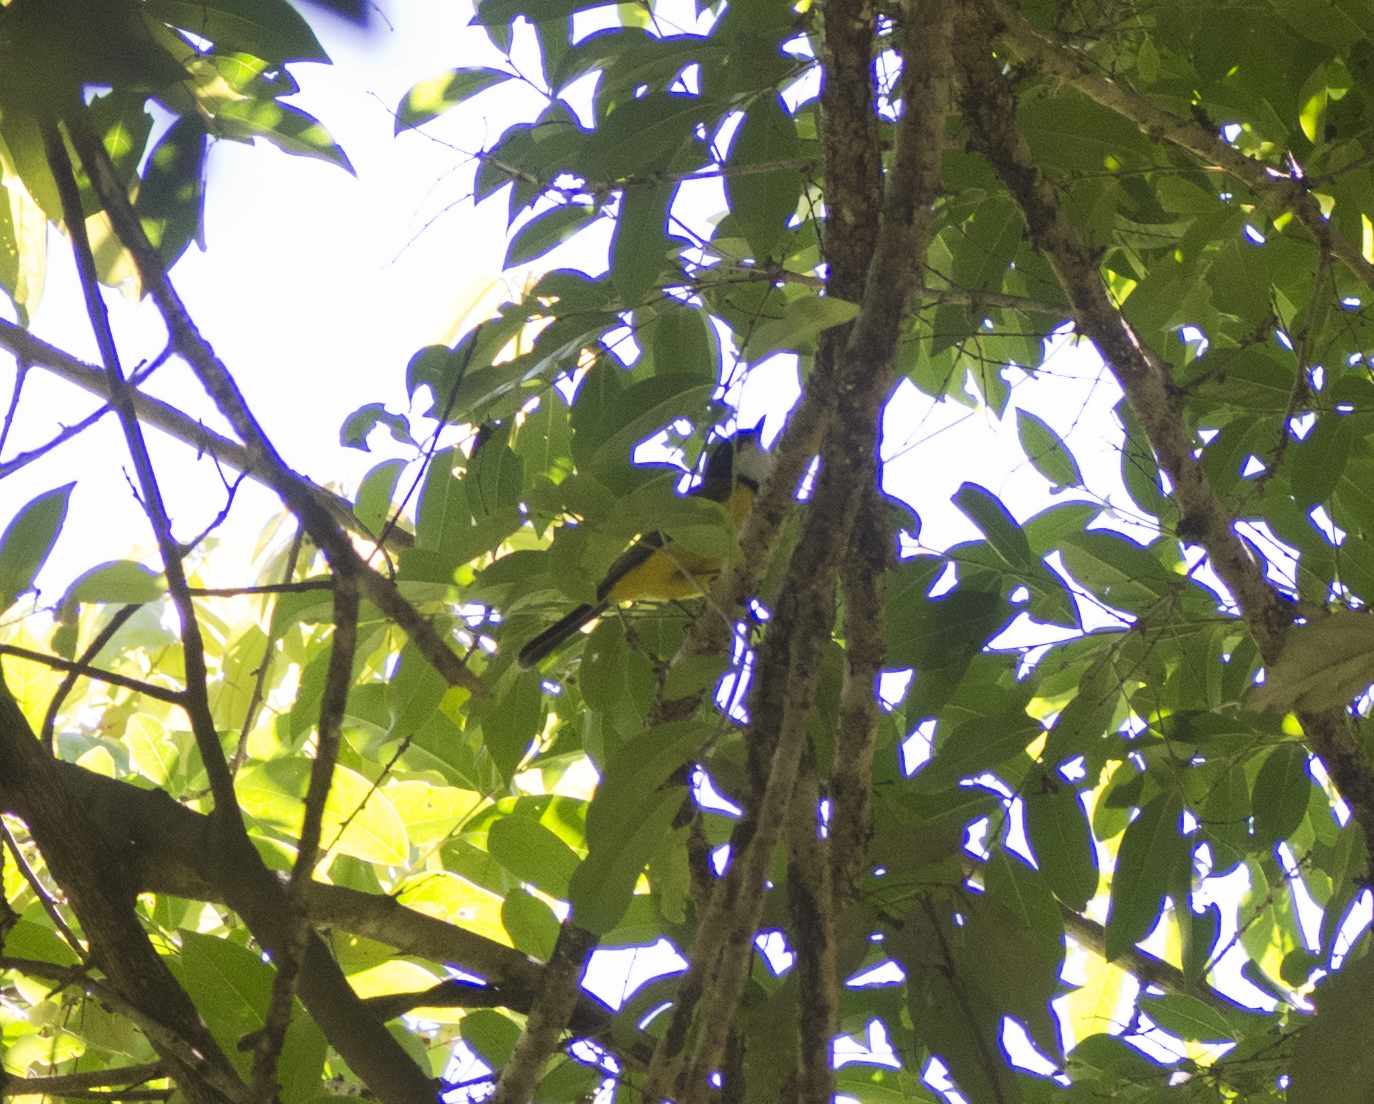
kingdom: Animalia
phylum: Chordata
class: Aves
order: Passeriformes
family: Pachycephalidae
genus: Pachycephala
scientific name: Pachycephala pectoralis
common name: Australian golden whistler
